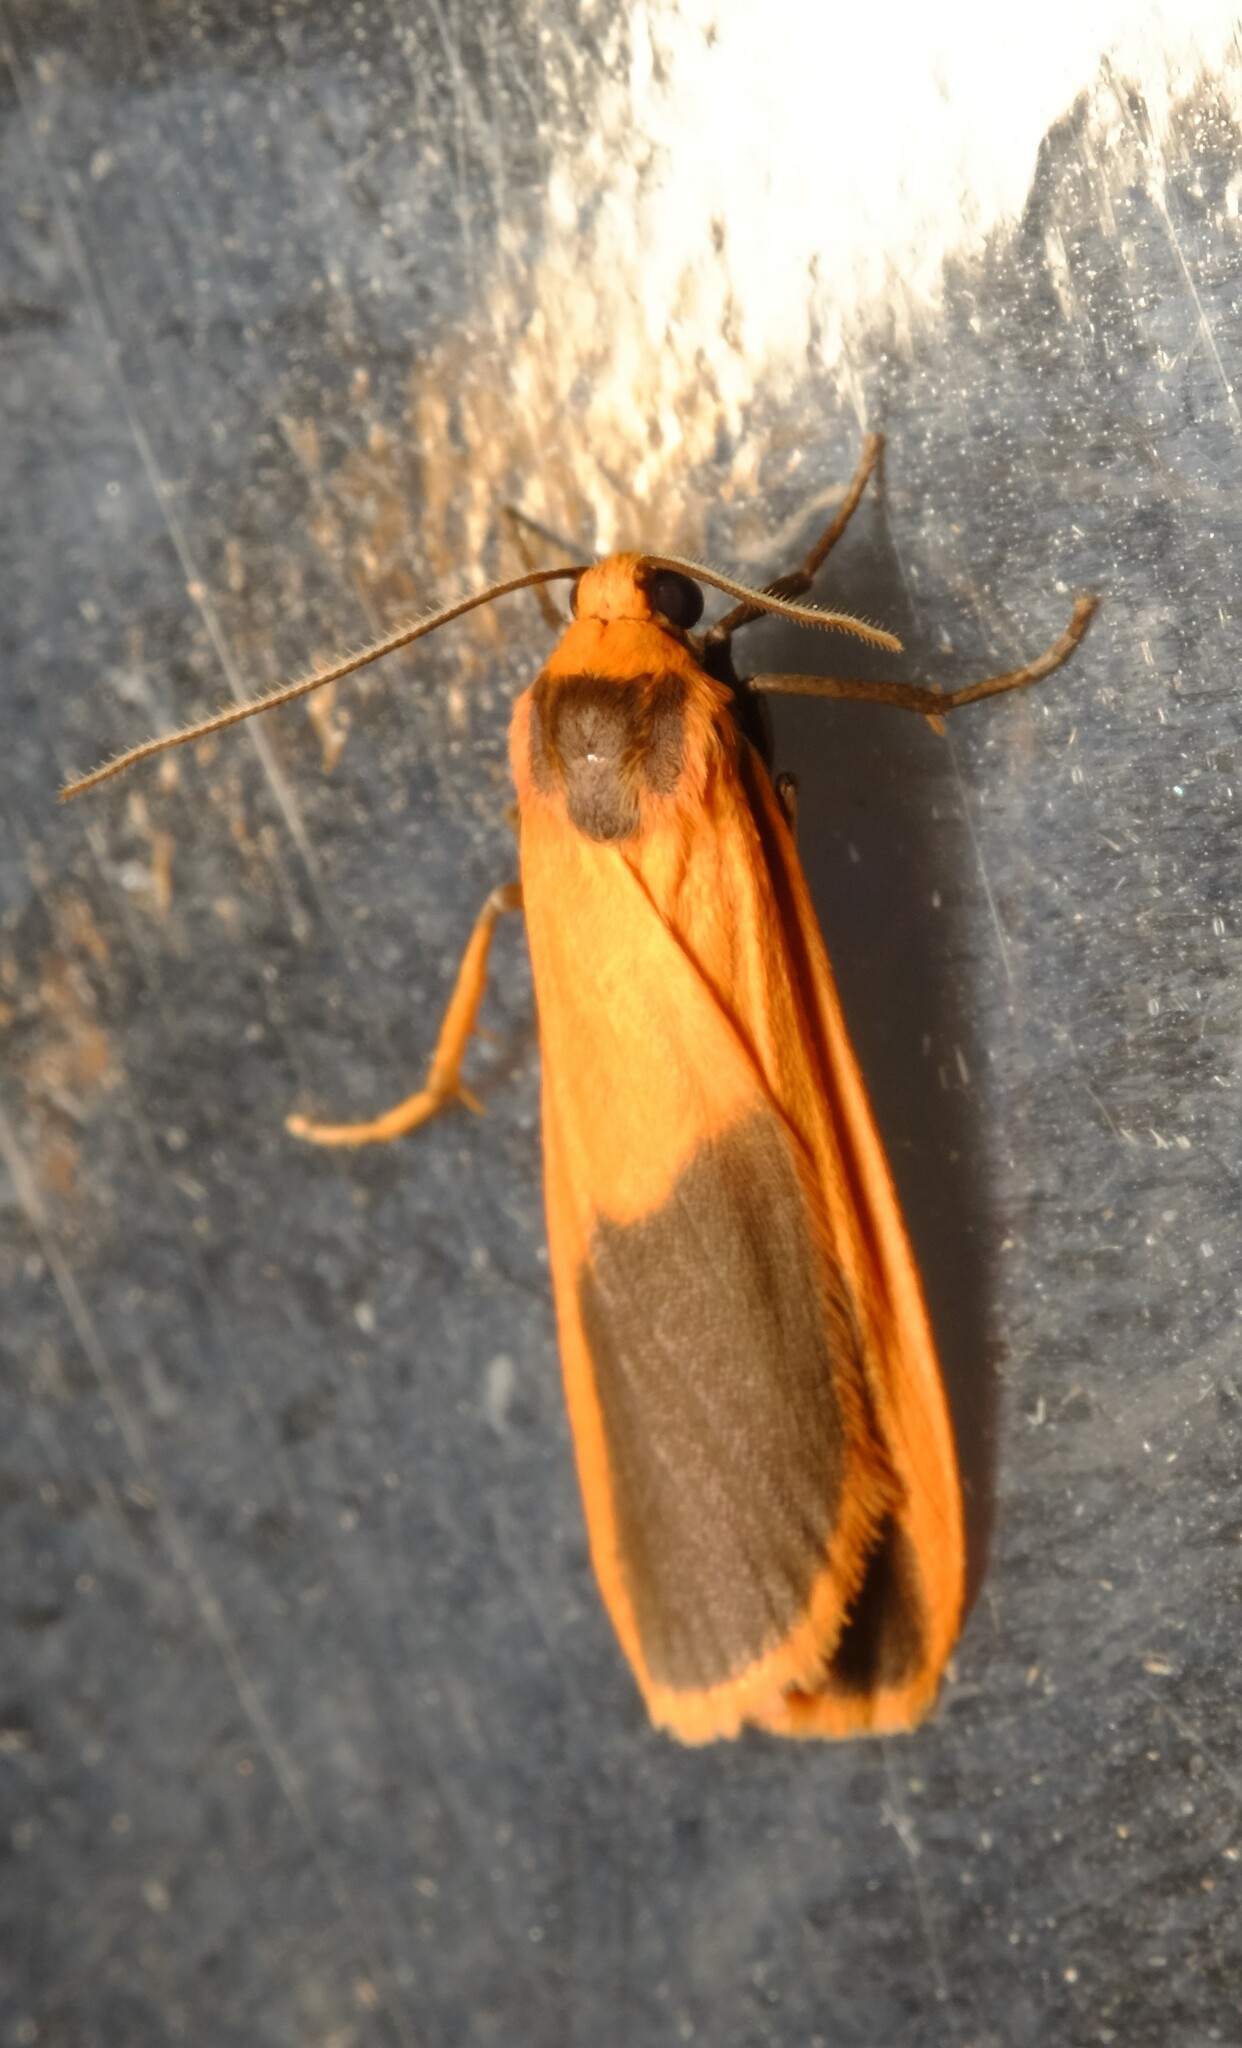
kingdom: Animalia
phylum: Arthropoda
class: Insecta
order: Lepidoptera
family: Erebidae
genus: Scoliacma
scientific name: Scoliacma bicolora
